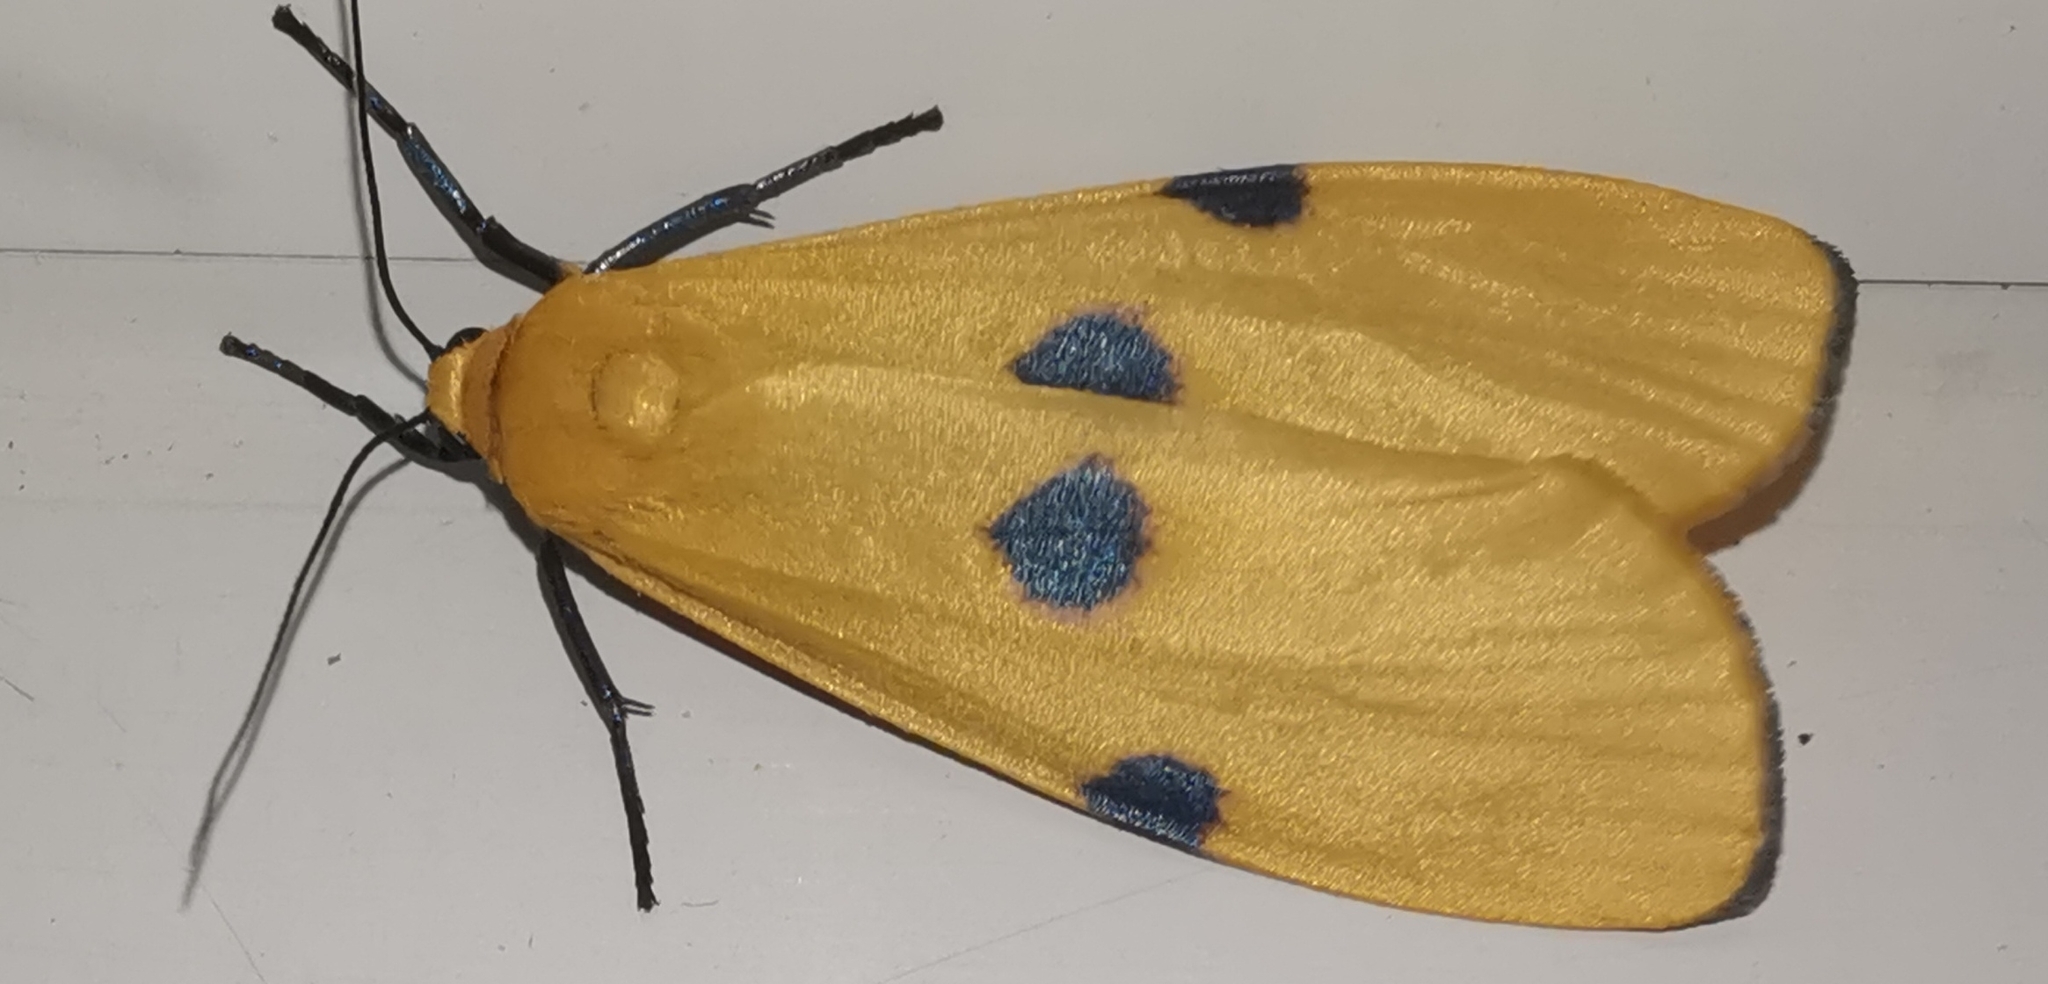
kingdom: Animalia
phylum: Arthropoda
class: Insecta
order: Lepidoptera
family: Erebidae
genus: Lithosia
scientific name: Lithosia quadra
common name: Four-spotted footman
